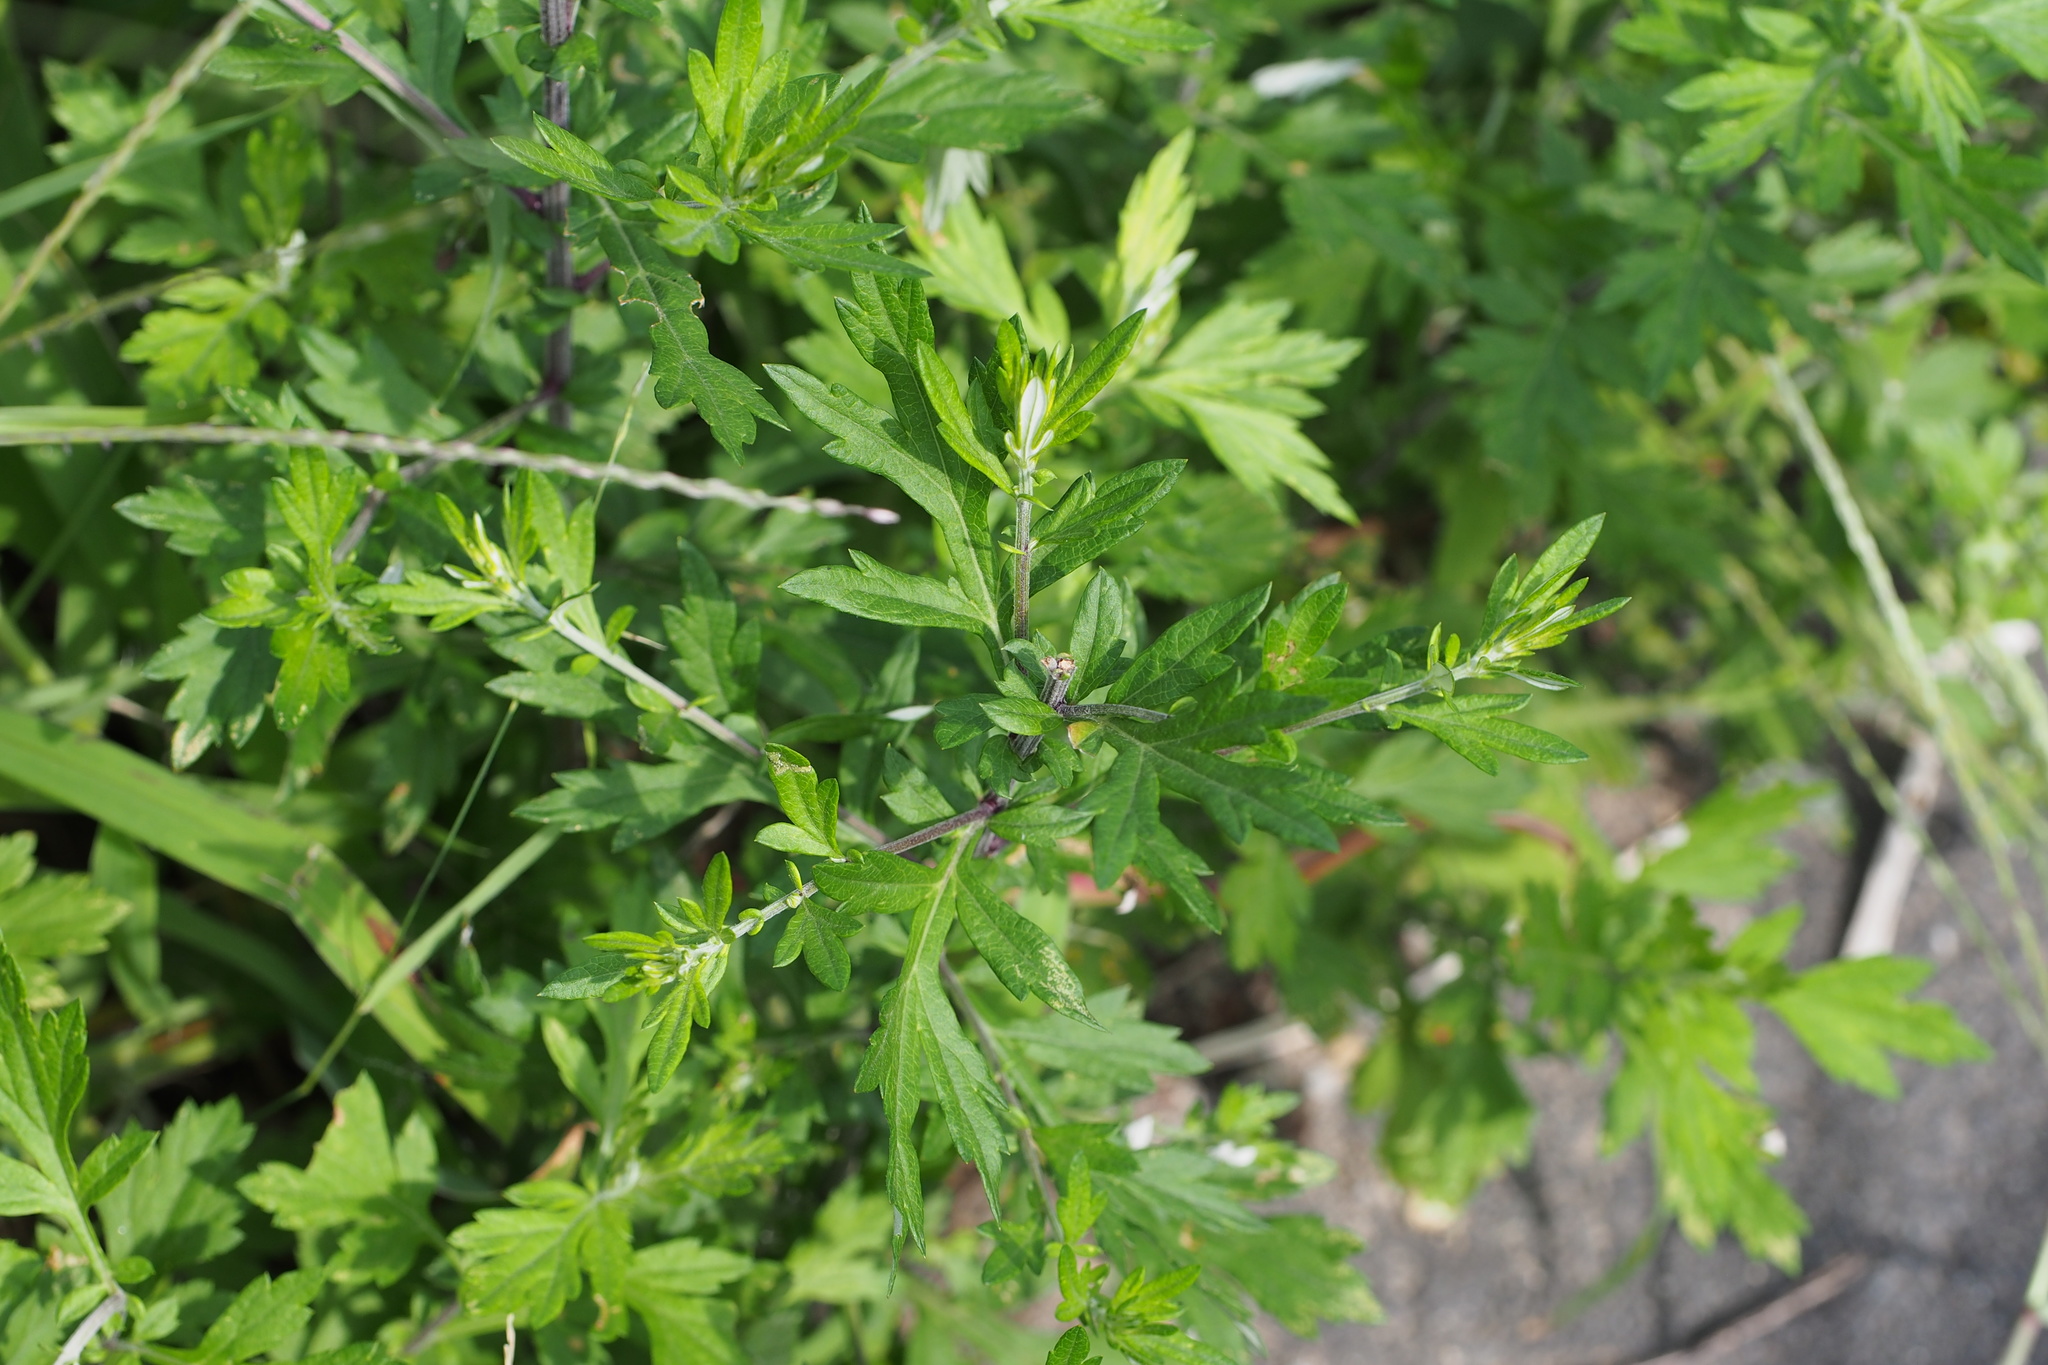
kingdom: Plantae
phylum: Tracheophyta
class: Magnoliopsida
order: Asterales
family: Asteraceae
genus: Artemisia
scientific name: Artemisia princeps
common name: Japanese mugwort
